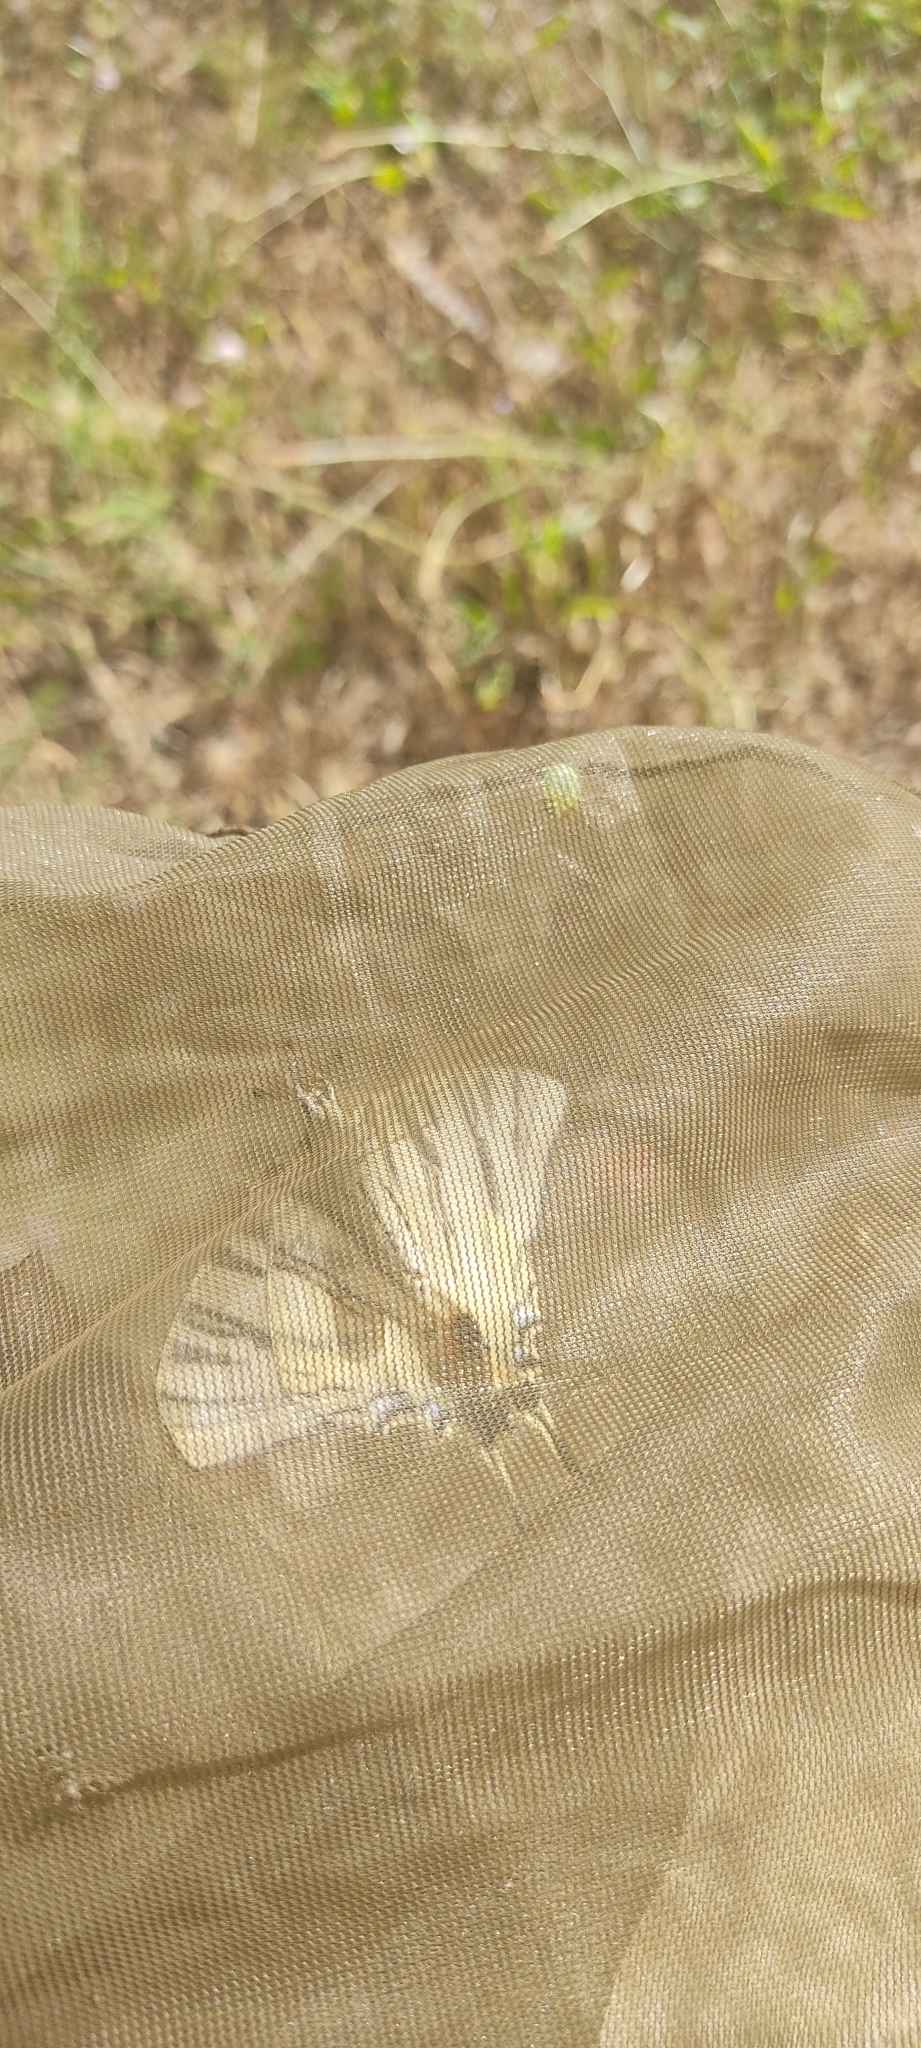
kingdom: Animalia
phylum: Arthropoda
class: Insecta
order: Lepidoptera
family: Papilionidae
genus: Iphiclides
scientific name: Iphiclides podalirius
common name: Scarce swallowtail
